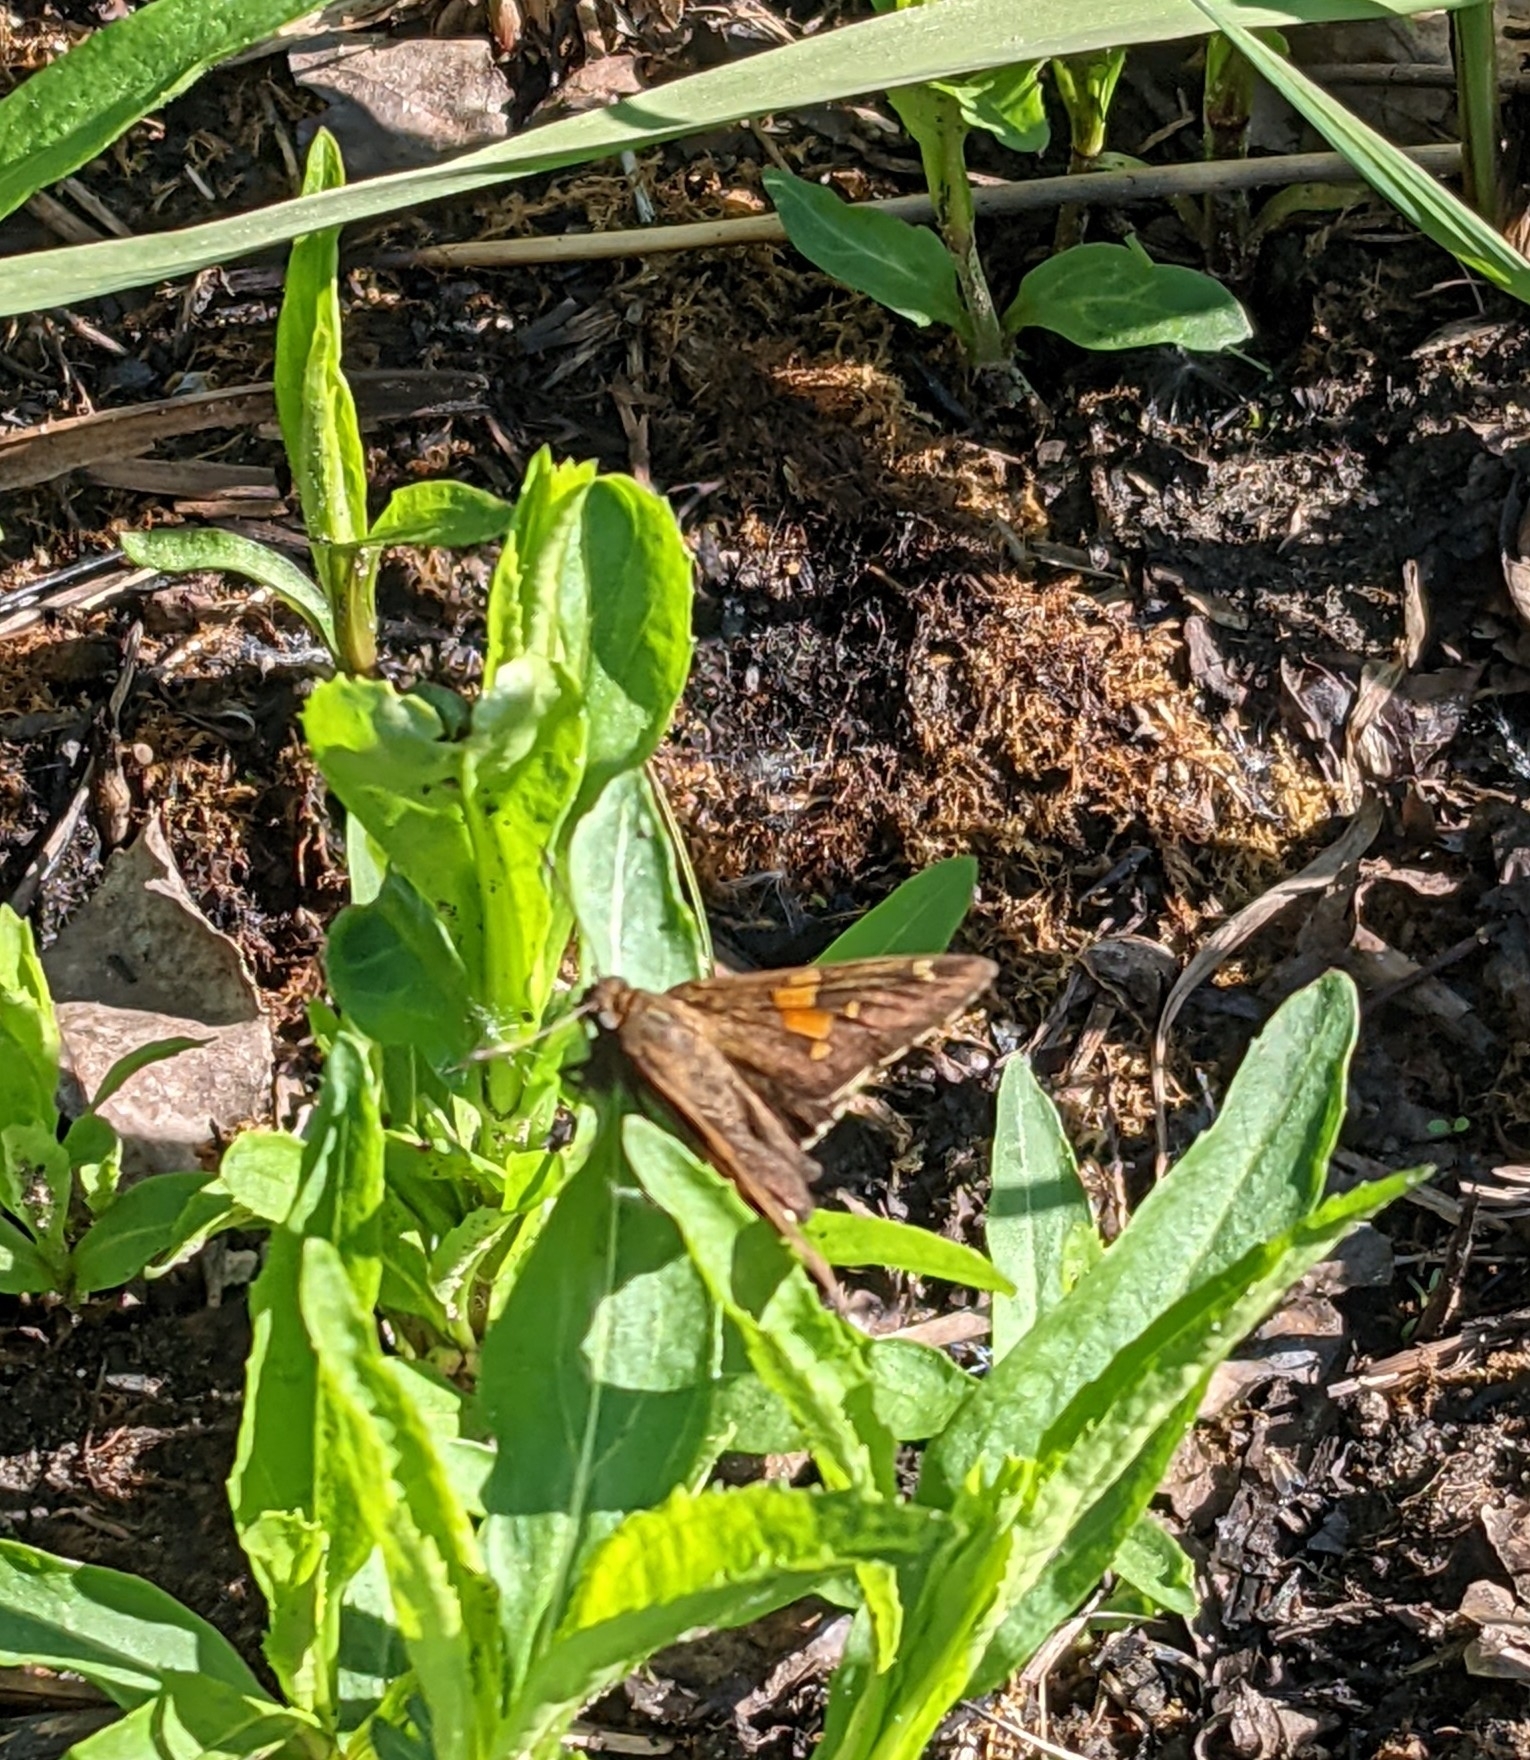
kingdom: Animalia
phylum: Arthropoda
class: Insecta
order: Lepidoptera
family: Hesperiidae
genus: Epargyreus
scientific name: Epargyreus clarus
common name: Silver-spotted skipper
